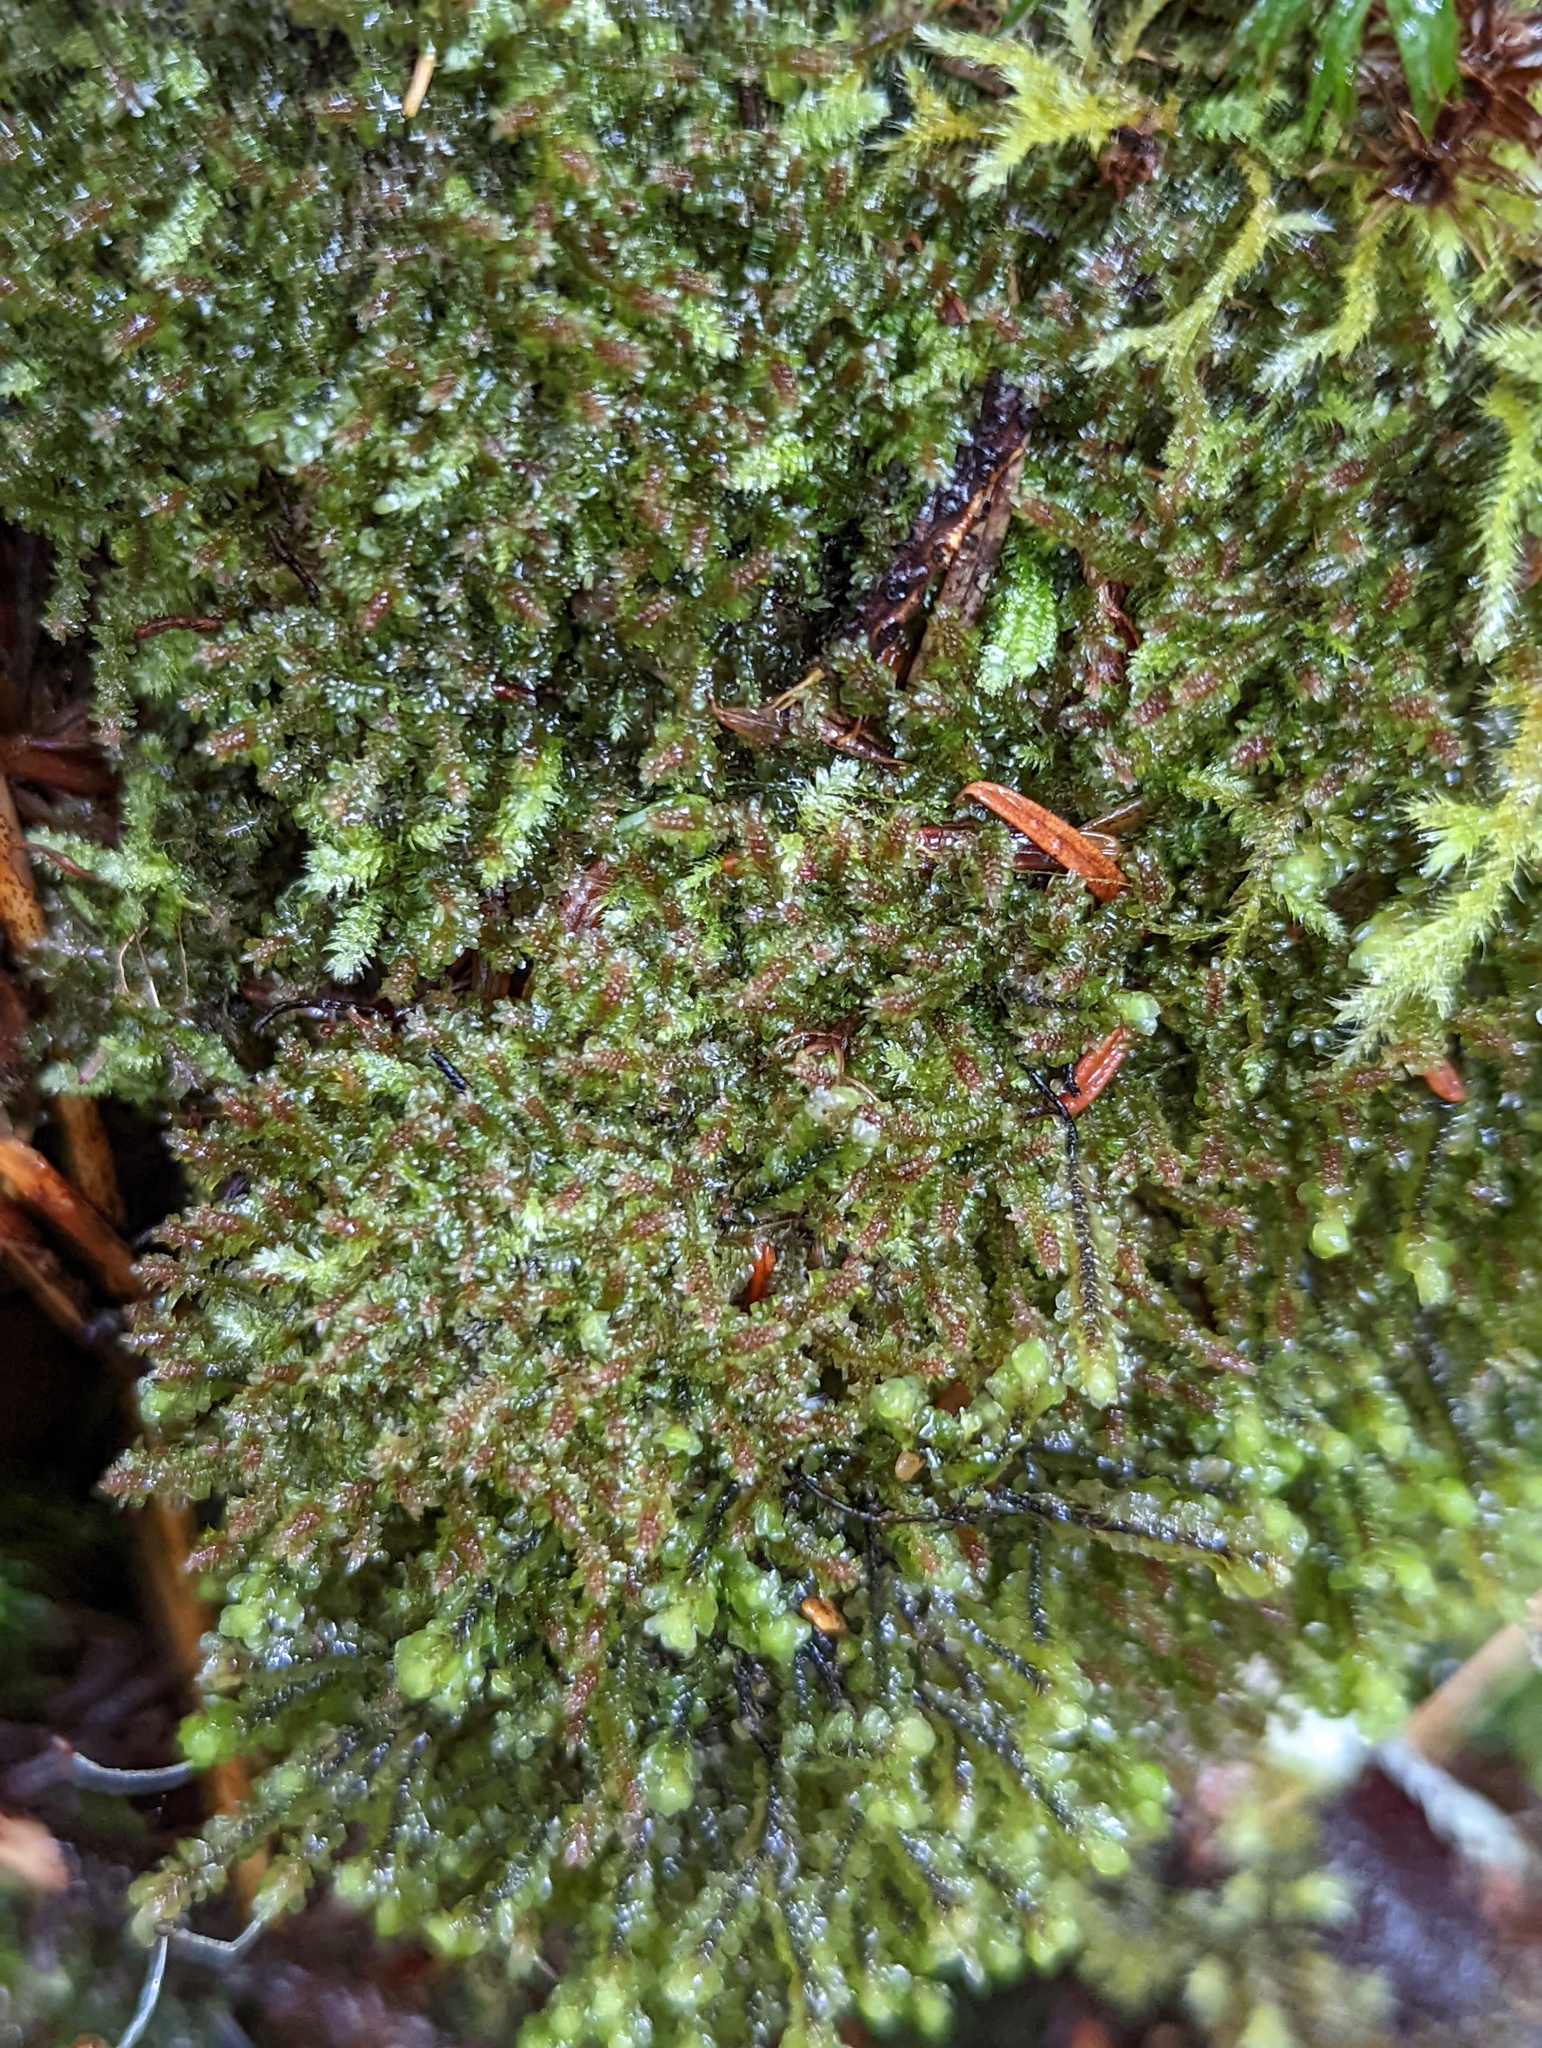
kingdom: Plantae
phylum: Marchantiophyta
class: Jungermanniopsida
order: Jungermanniales
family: Scapaniaceae
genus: Diplophyllum
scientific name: Diplophyllum albicans
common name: White earwort
